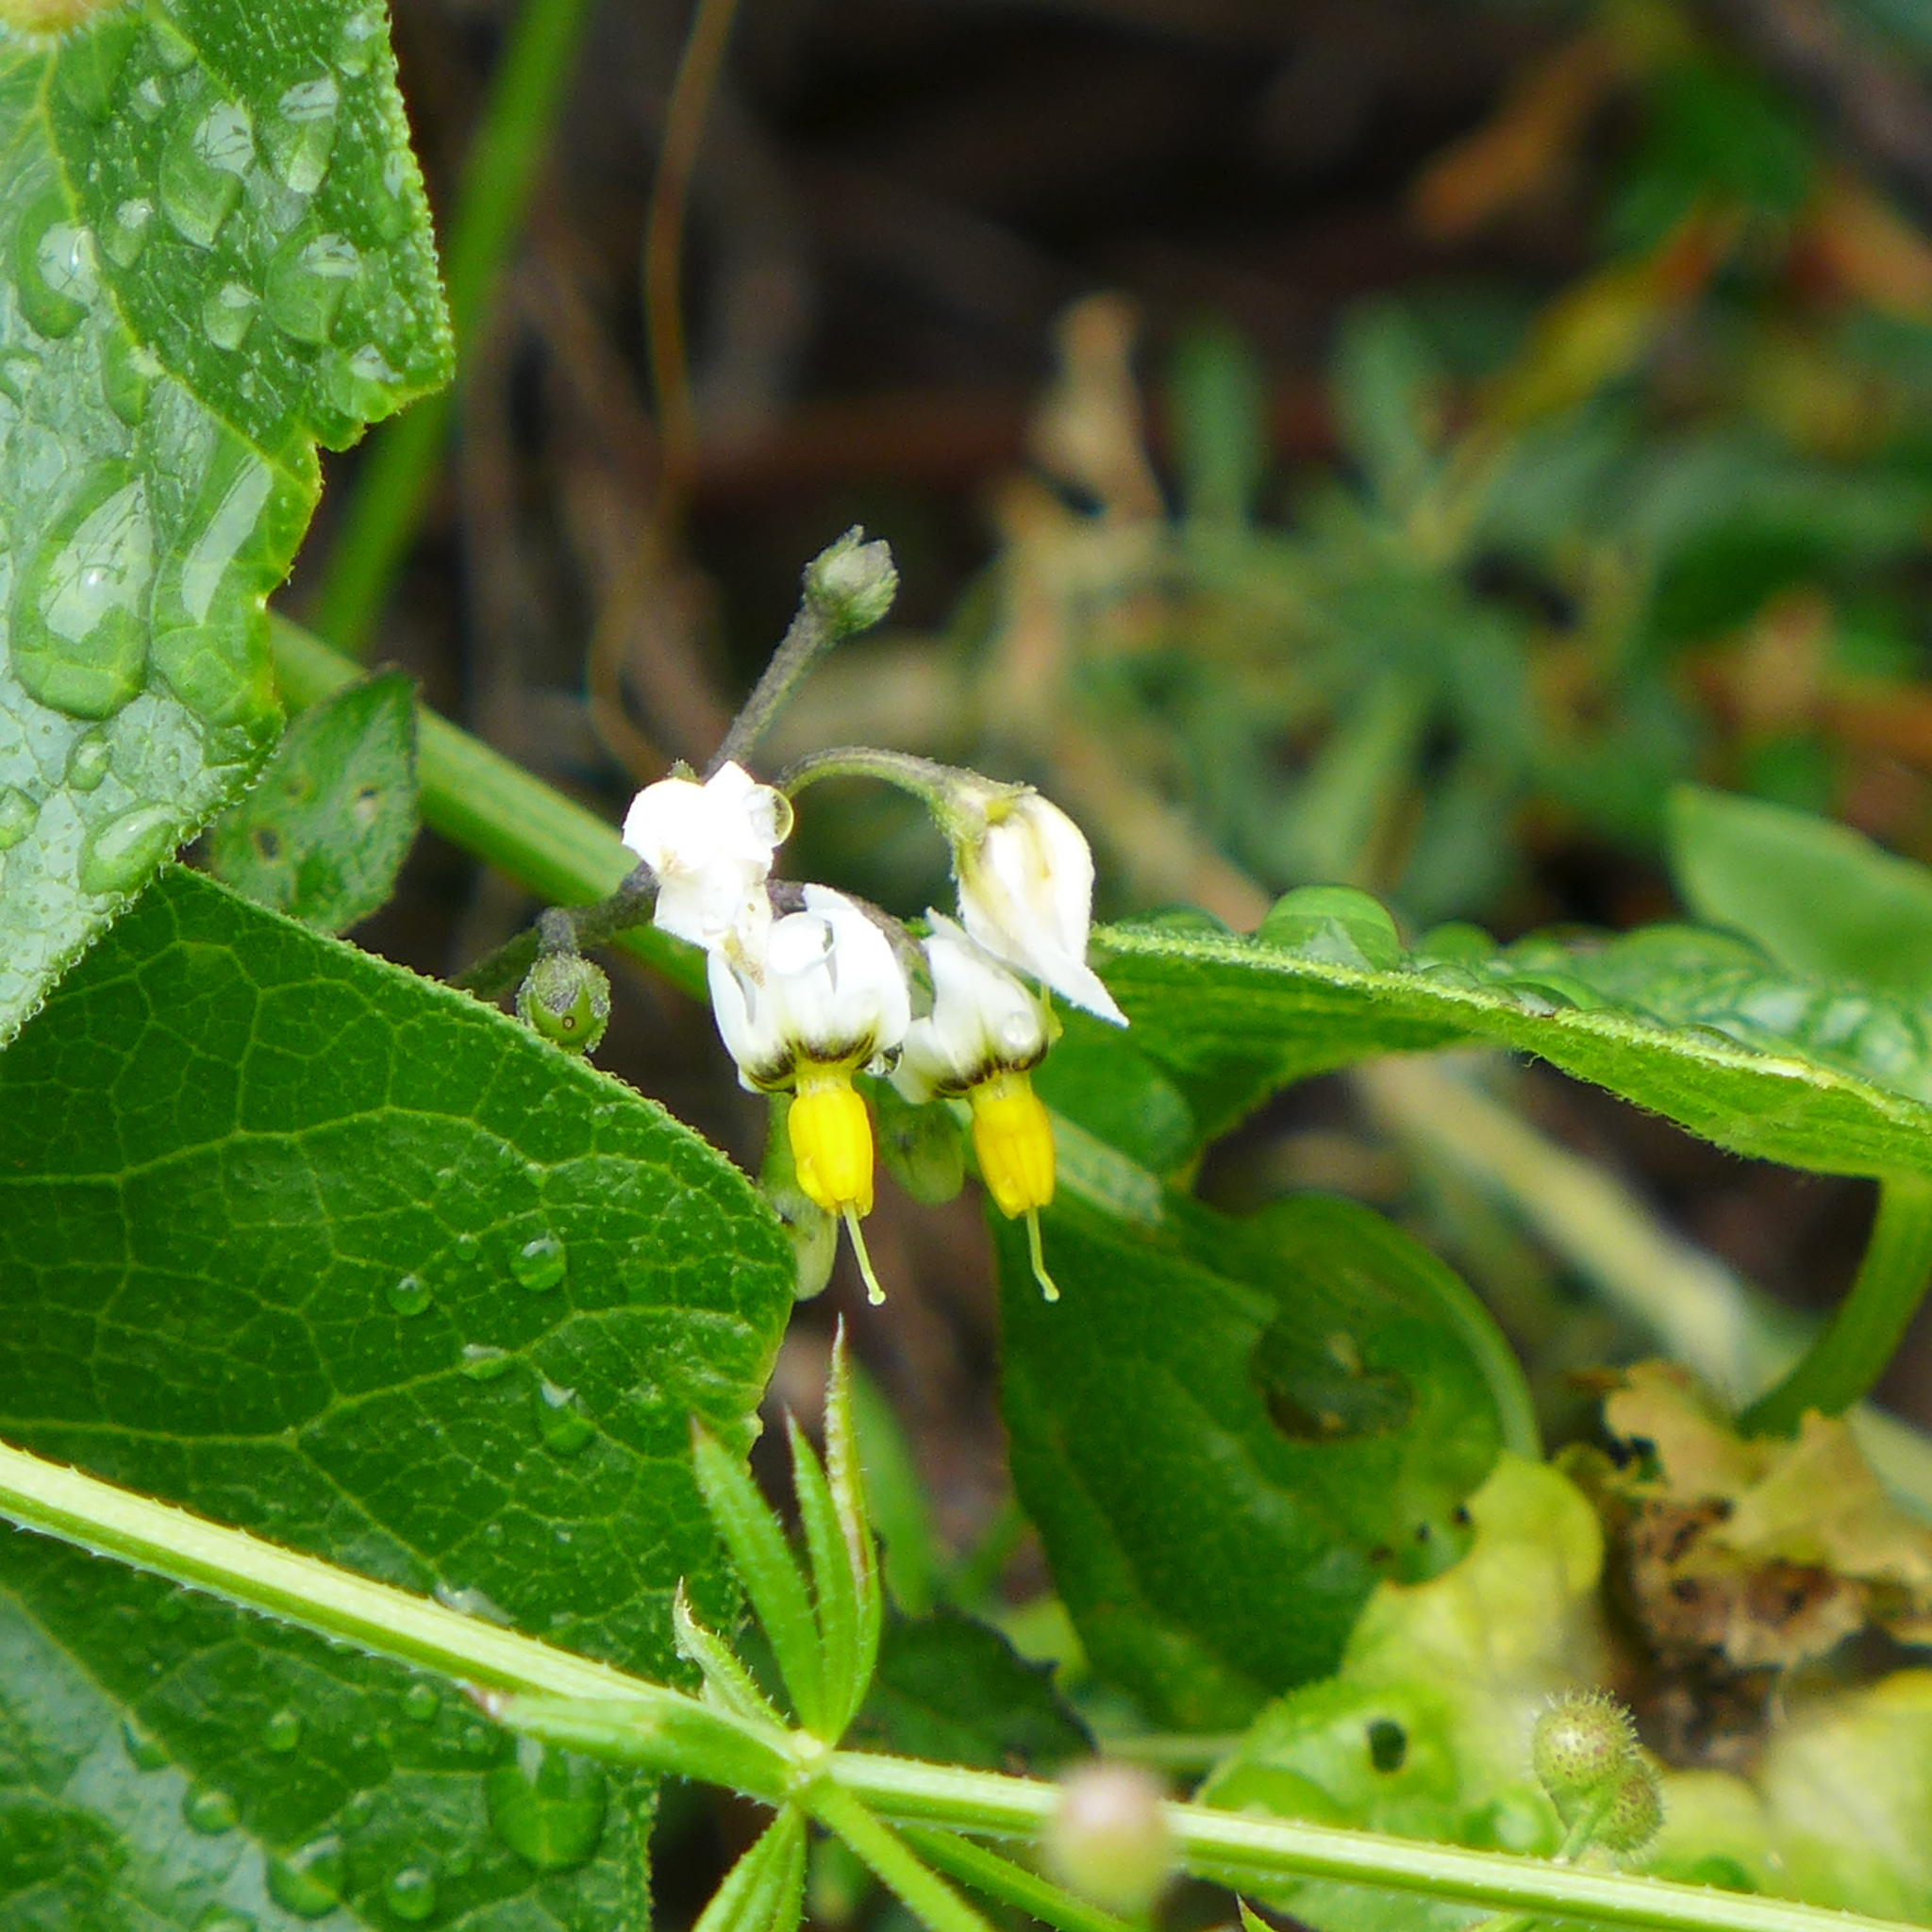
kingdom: Plantae
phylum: Tracheophyta
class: Magnoliopsida
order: Solanales
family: Solanaceae
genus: Solanum
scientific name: Solanum douglasii
